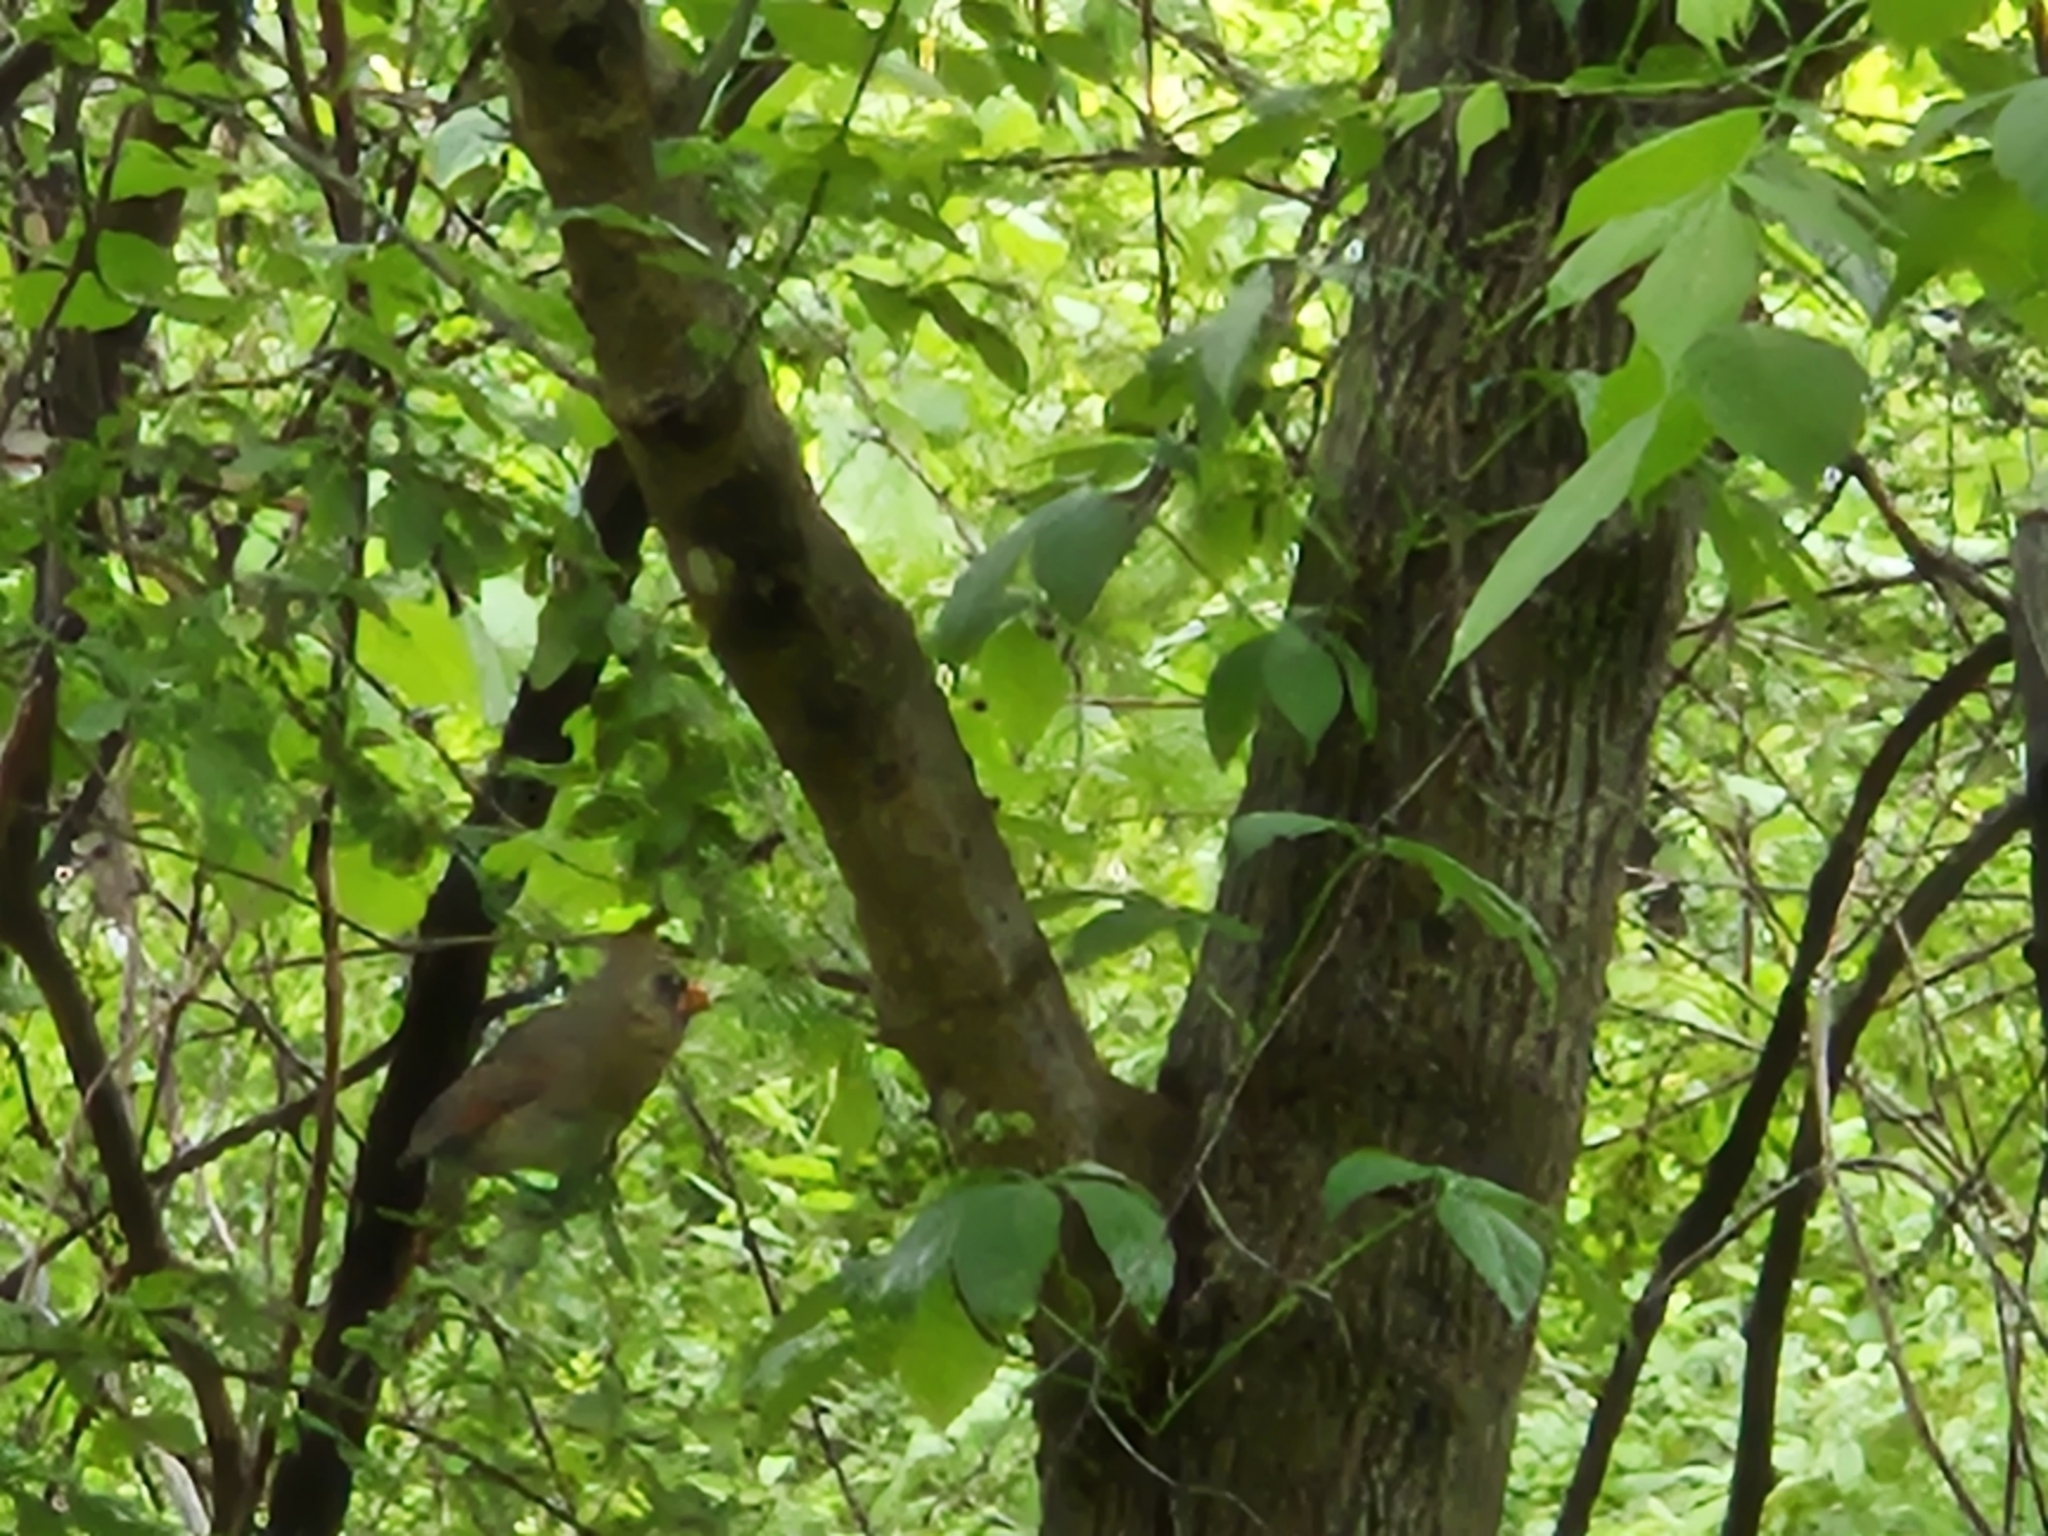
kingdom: Animalia
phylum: Chordata
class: Aves
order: Passeriformes
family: Cardinalidae
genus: Cardinalis
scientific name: Cardinalis cardinalis
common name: Northern cardinal
